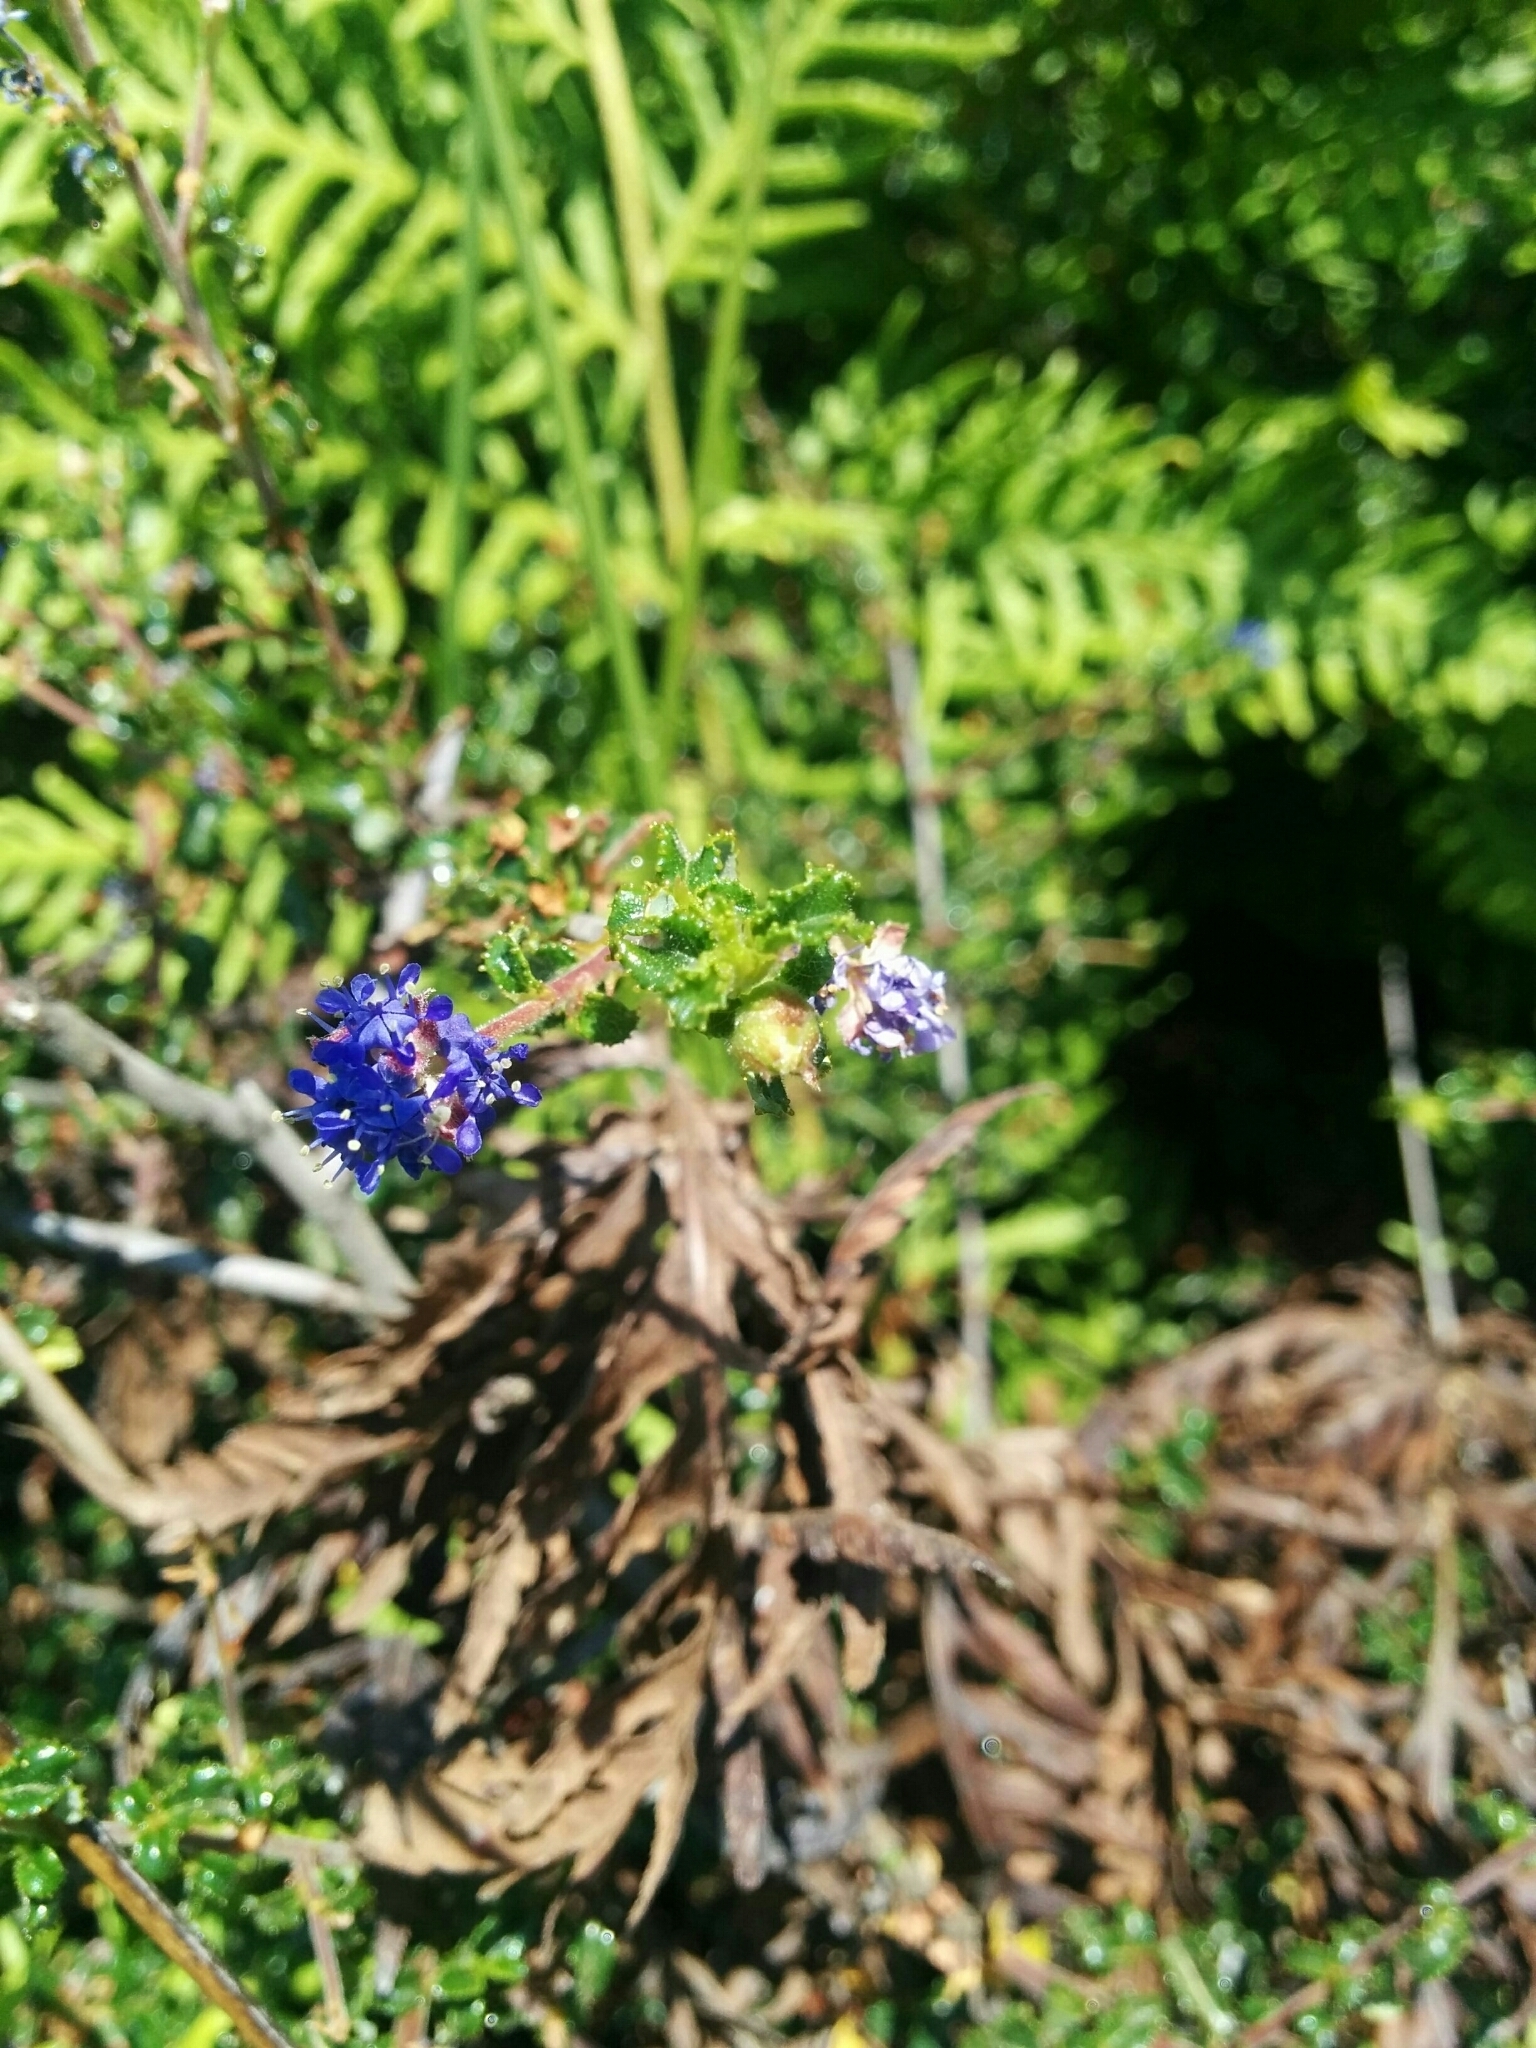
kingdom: Plantae
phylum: Tracheophyta
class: Magnoliopsida
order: Rosales
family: Rhamnaceae
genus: Ceanothus
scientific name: Ceanothus foliosus
